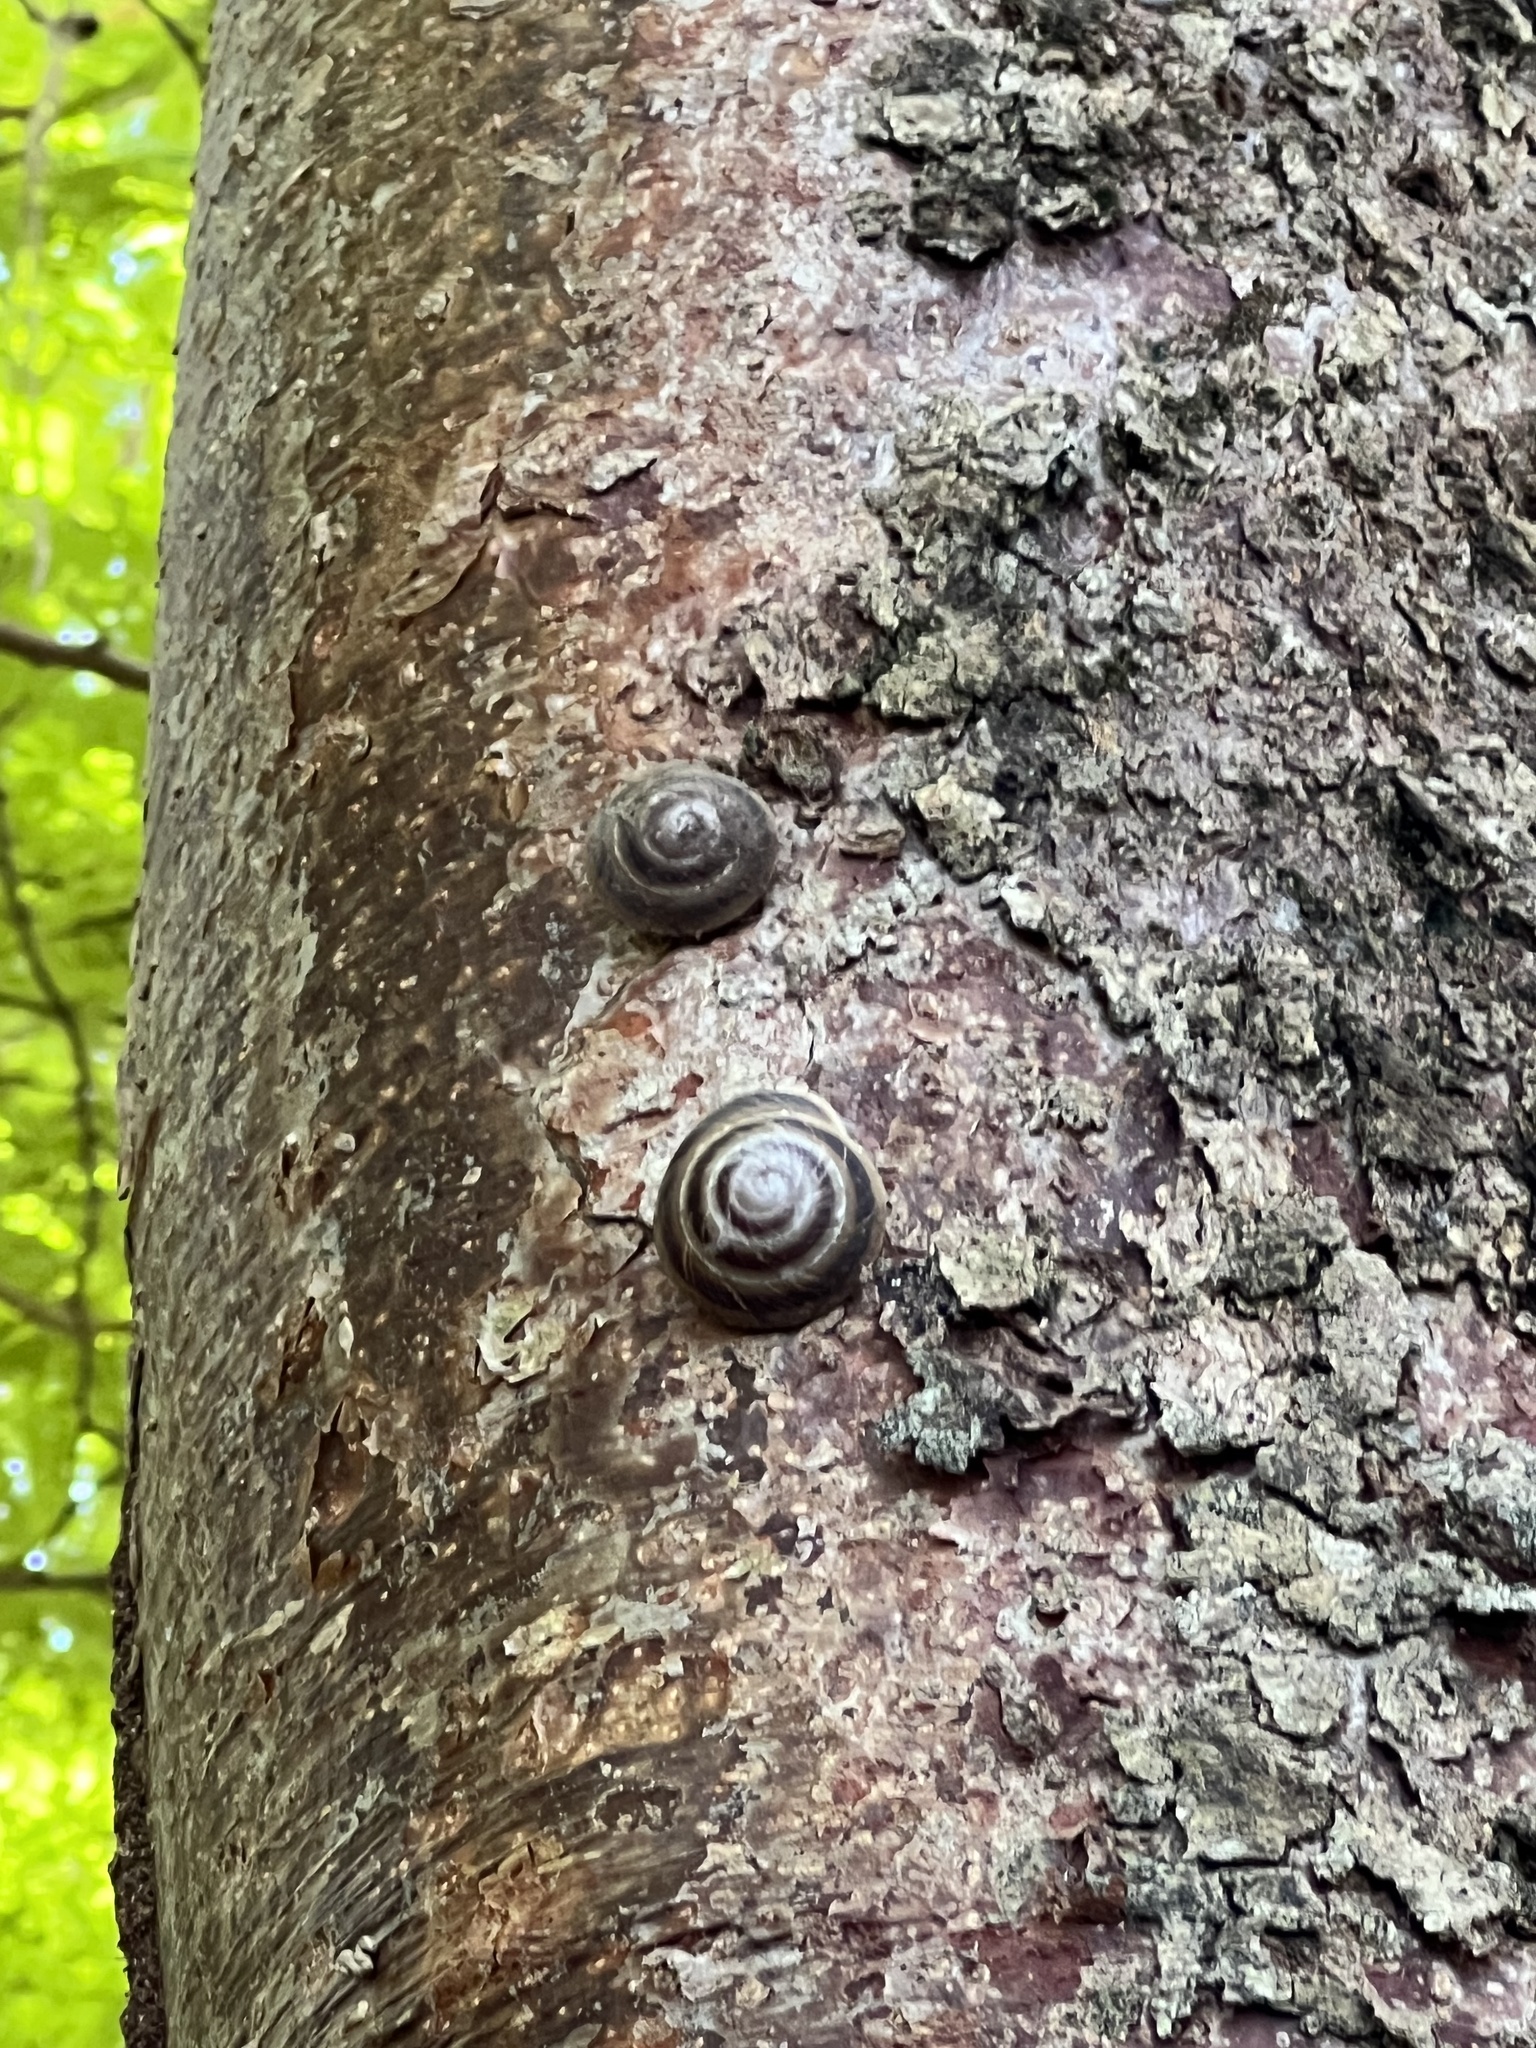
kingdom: Animalia
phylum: Mollusca
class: Gastropoda
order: Stylommatophora
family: Solaropsidae
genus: Caracolus
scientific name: Caracolus marginella
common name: Banded caracol
